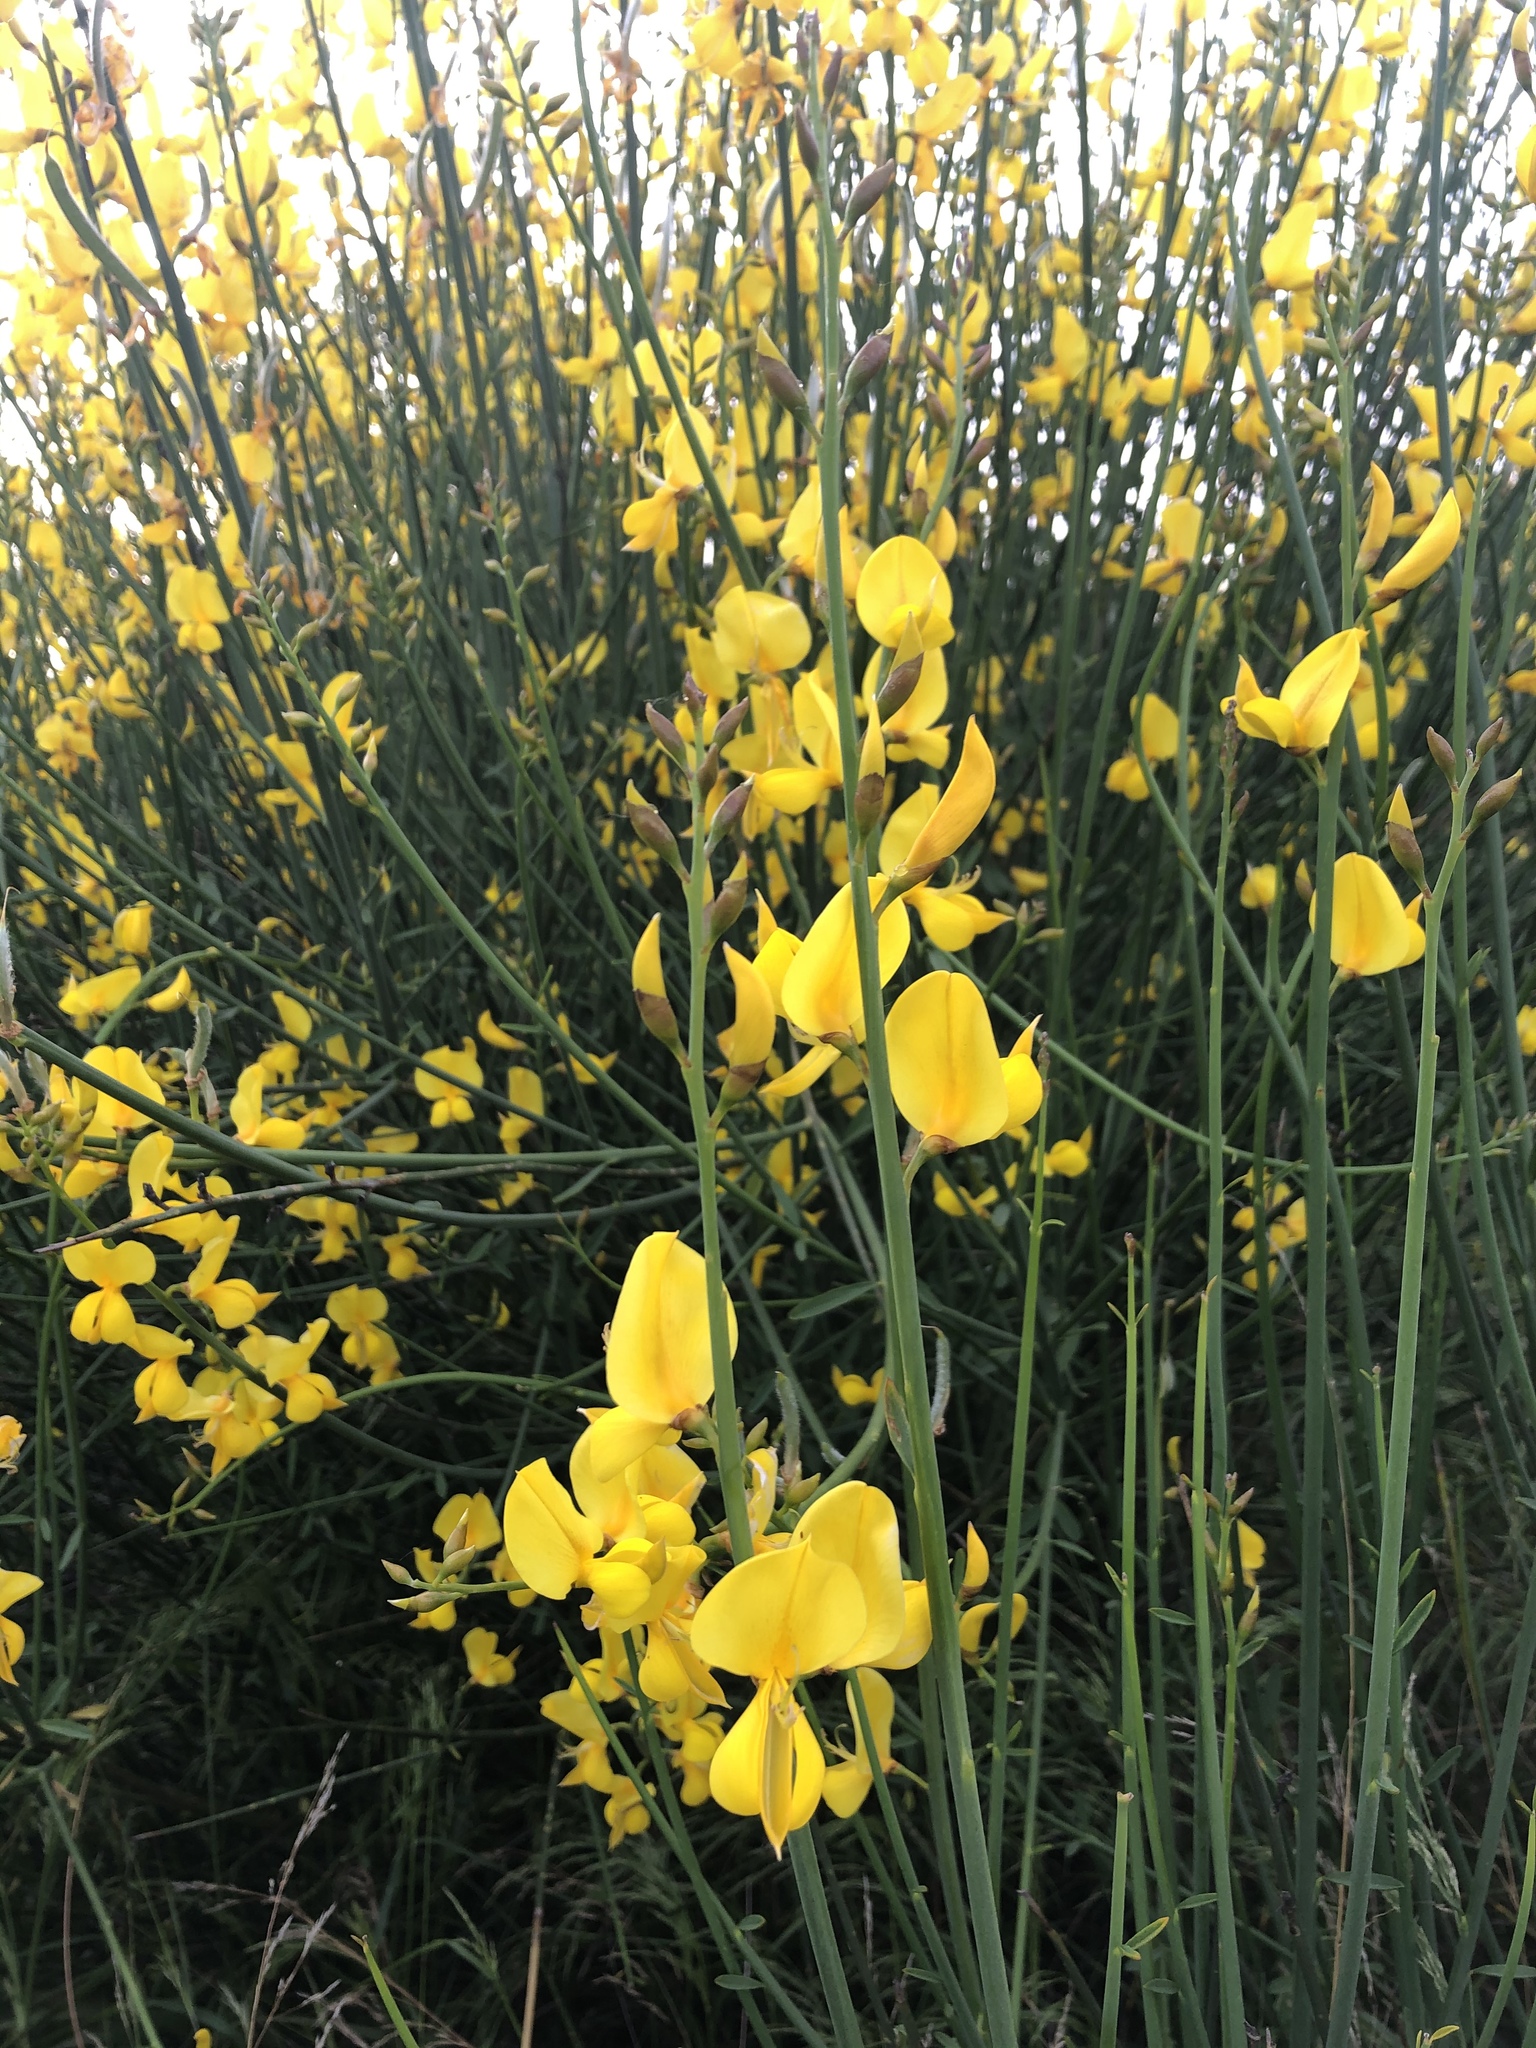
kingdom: Plantae
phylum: Tracheophyta
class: Magnoliopsida
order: Fabales
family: Fabaceae
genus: Spartium
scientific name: Spartium junceum
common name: Spanish broom
